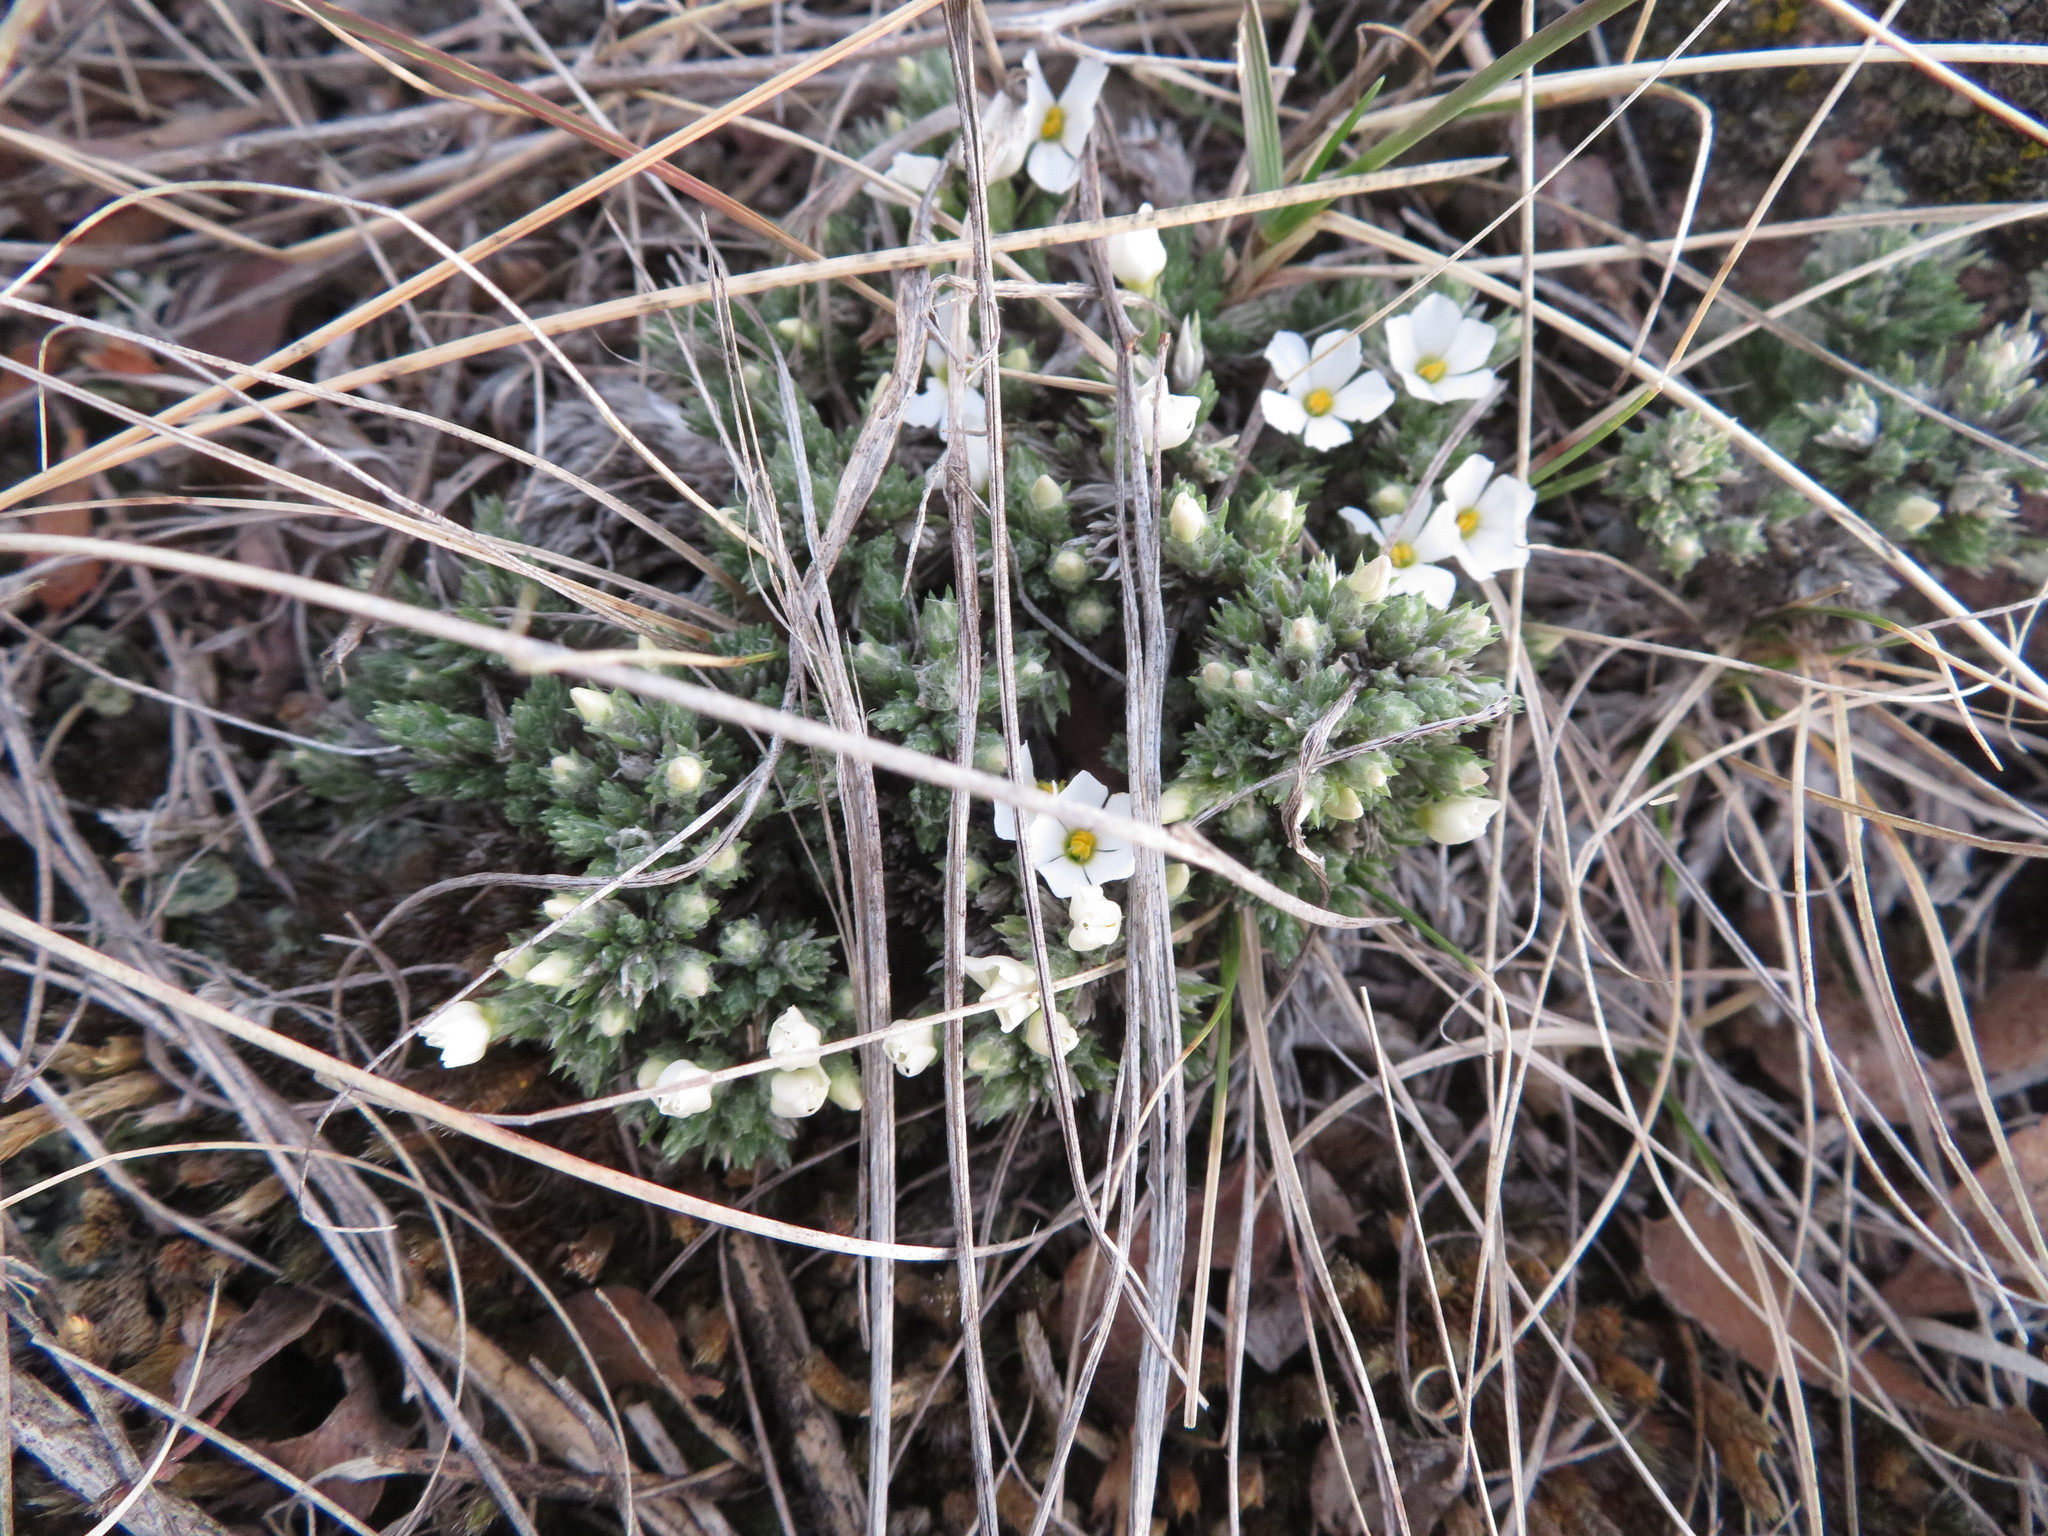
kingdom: Plantae
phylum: Tracheophyta
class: Magnoliopsida
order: Ericales
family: Polemoniaceae
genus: Phlox
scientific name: Phlox hoodii
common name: Moss phlox
